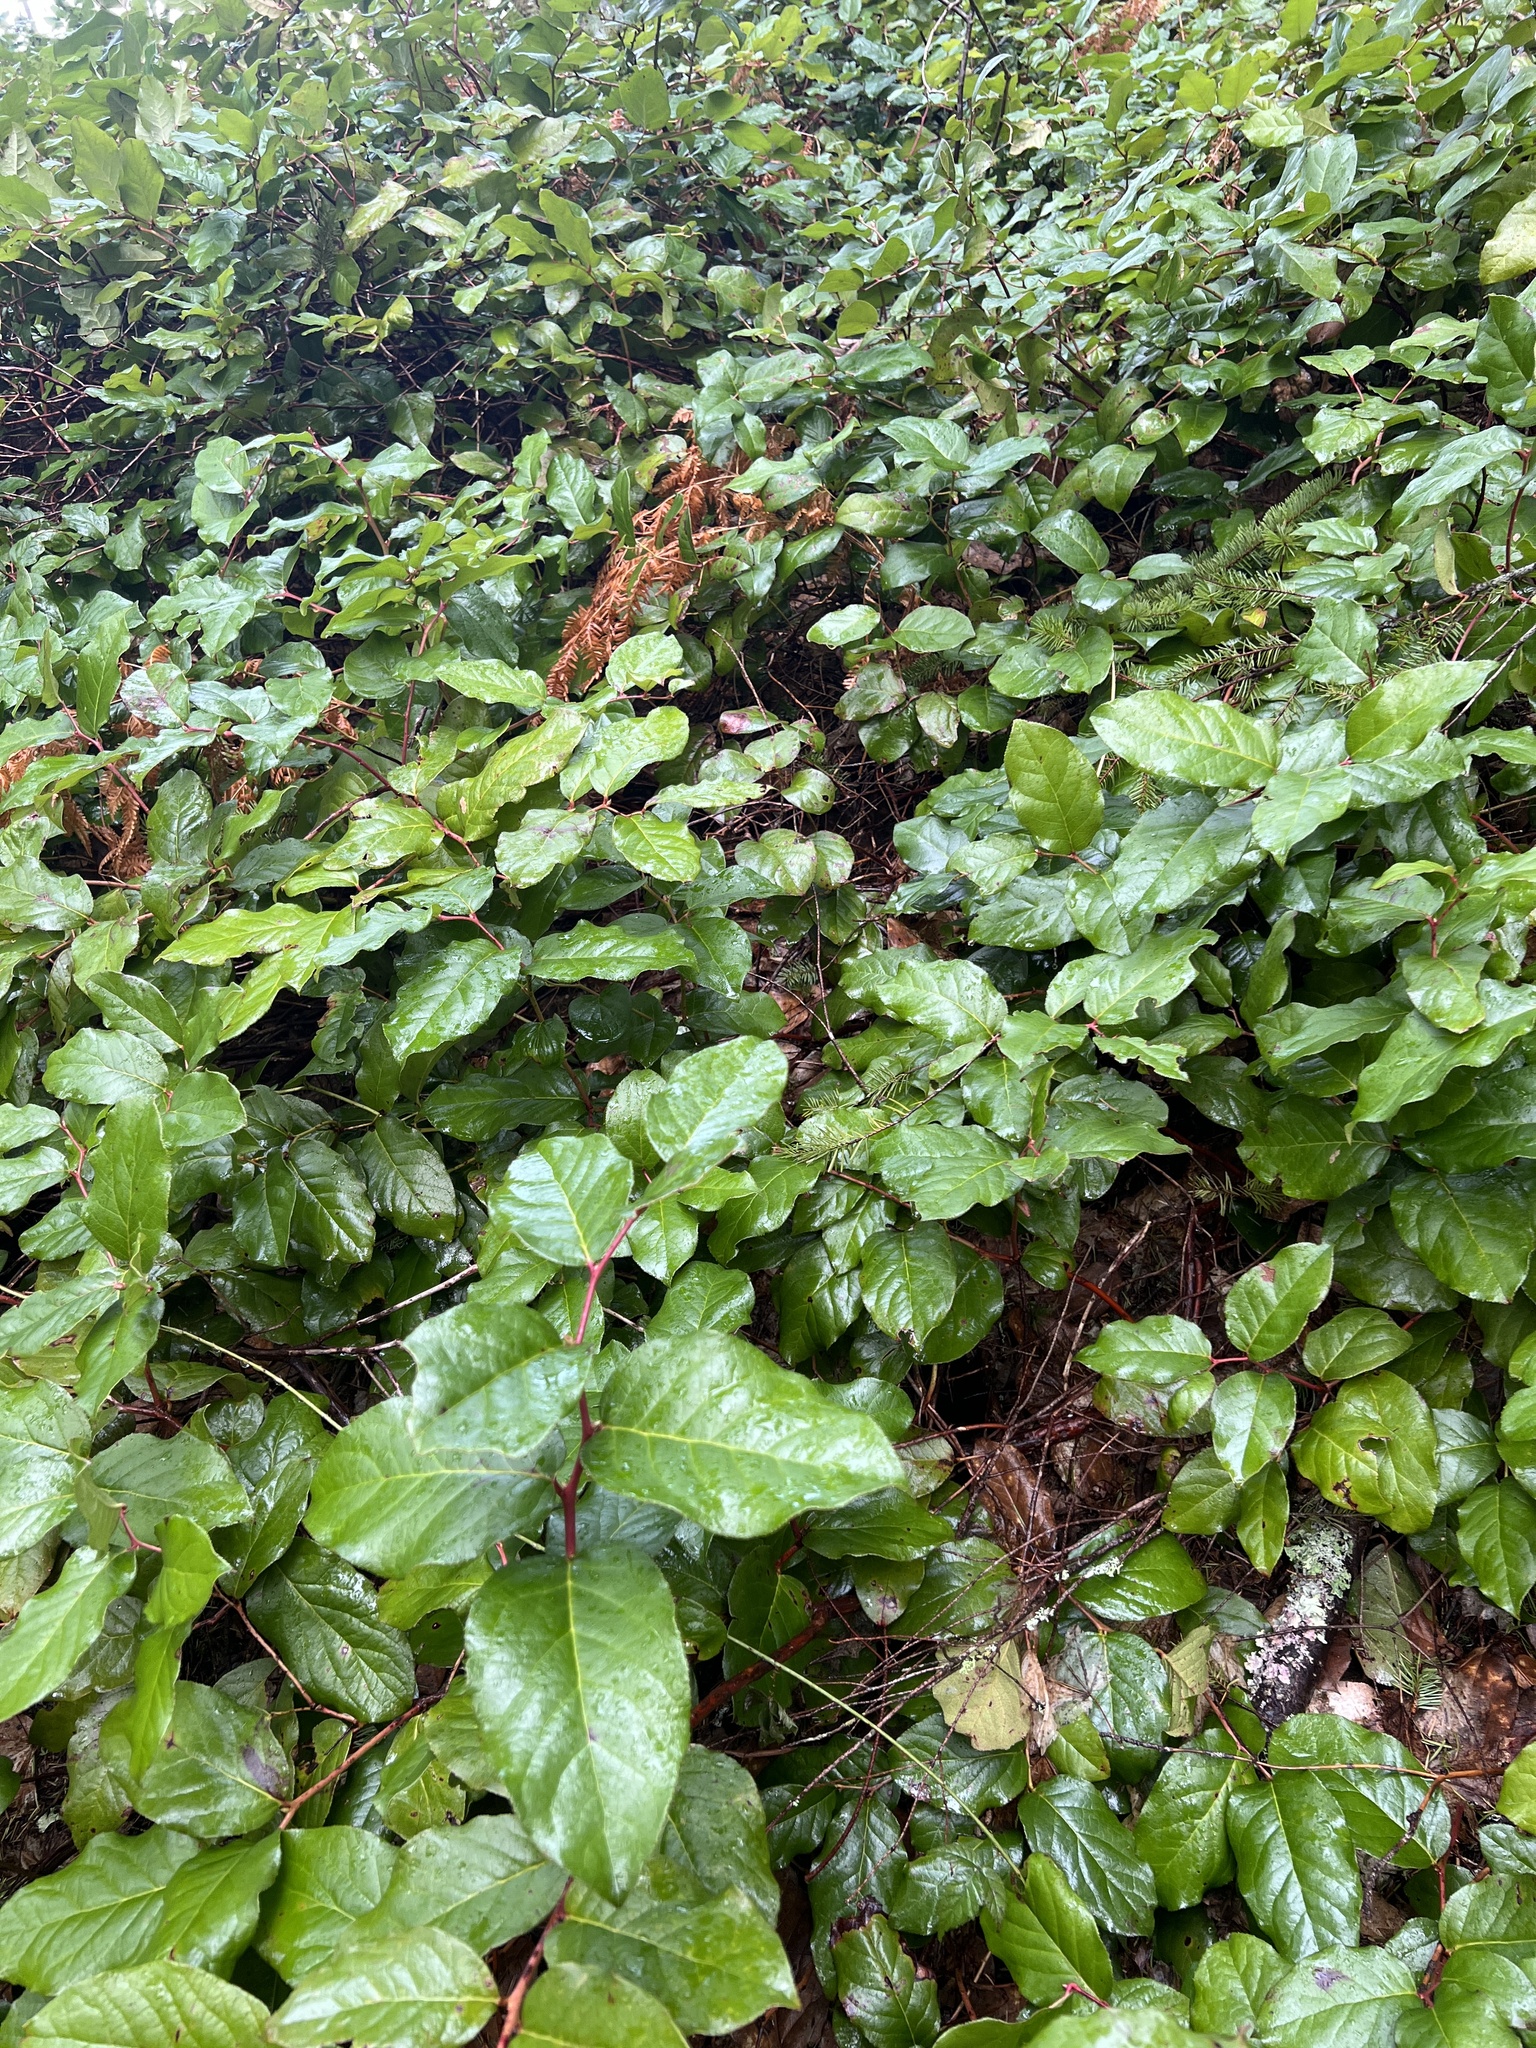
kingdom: Plantae
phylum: Tracheophyta
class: Magnoliopsida
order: Ericales
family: Ericaceae
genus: Gaultheria
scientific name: Gaultheria shallon
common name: Shallon
